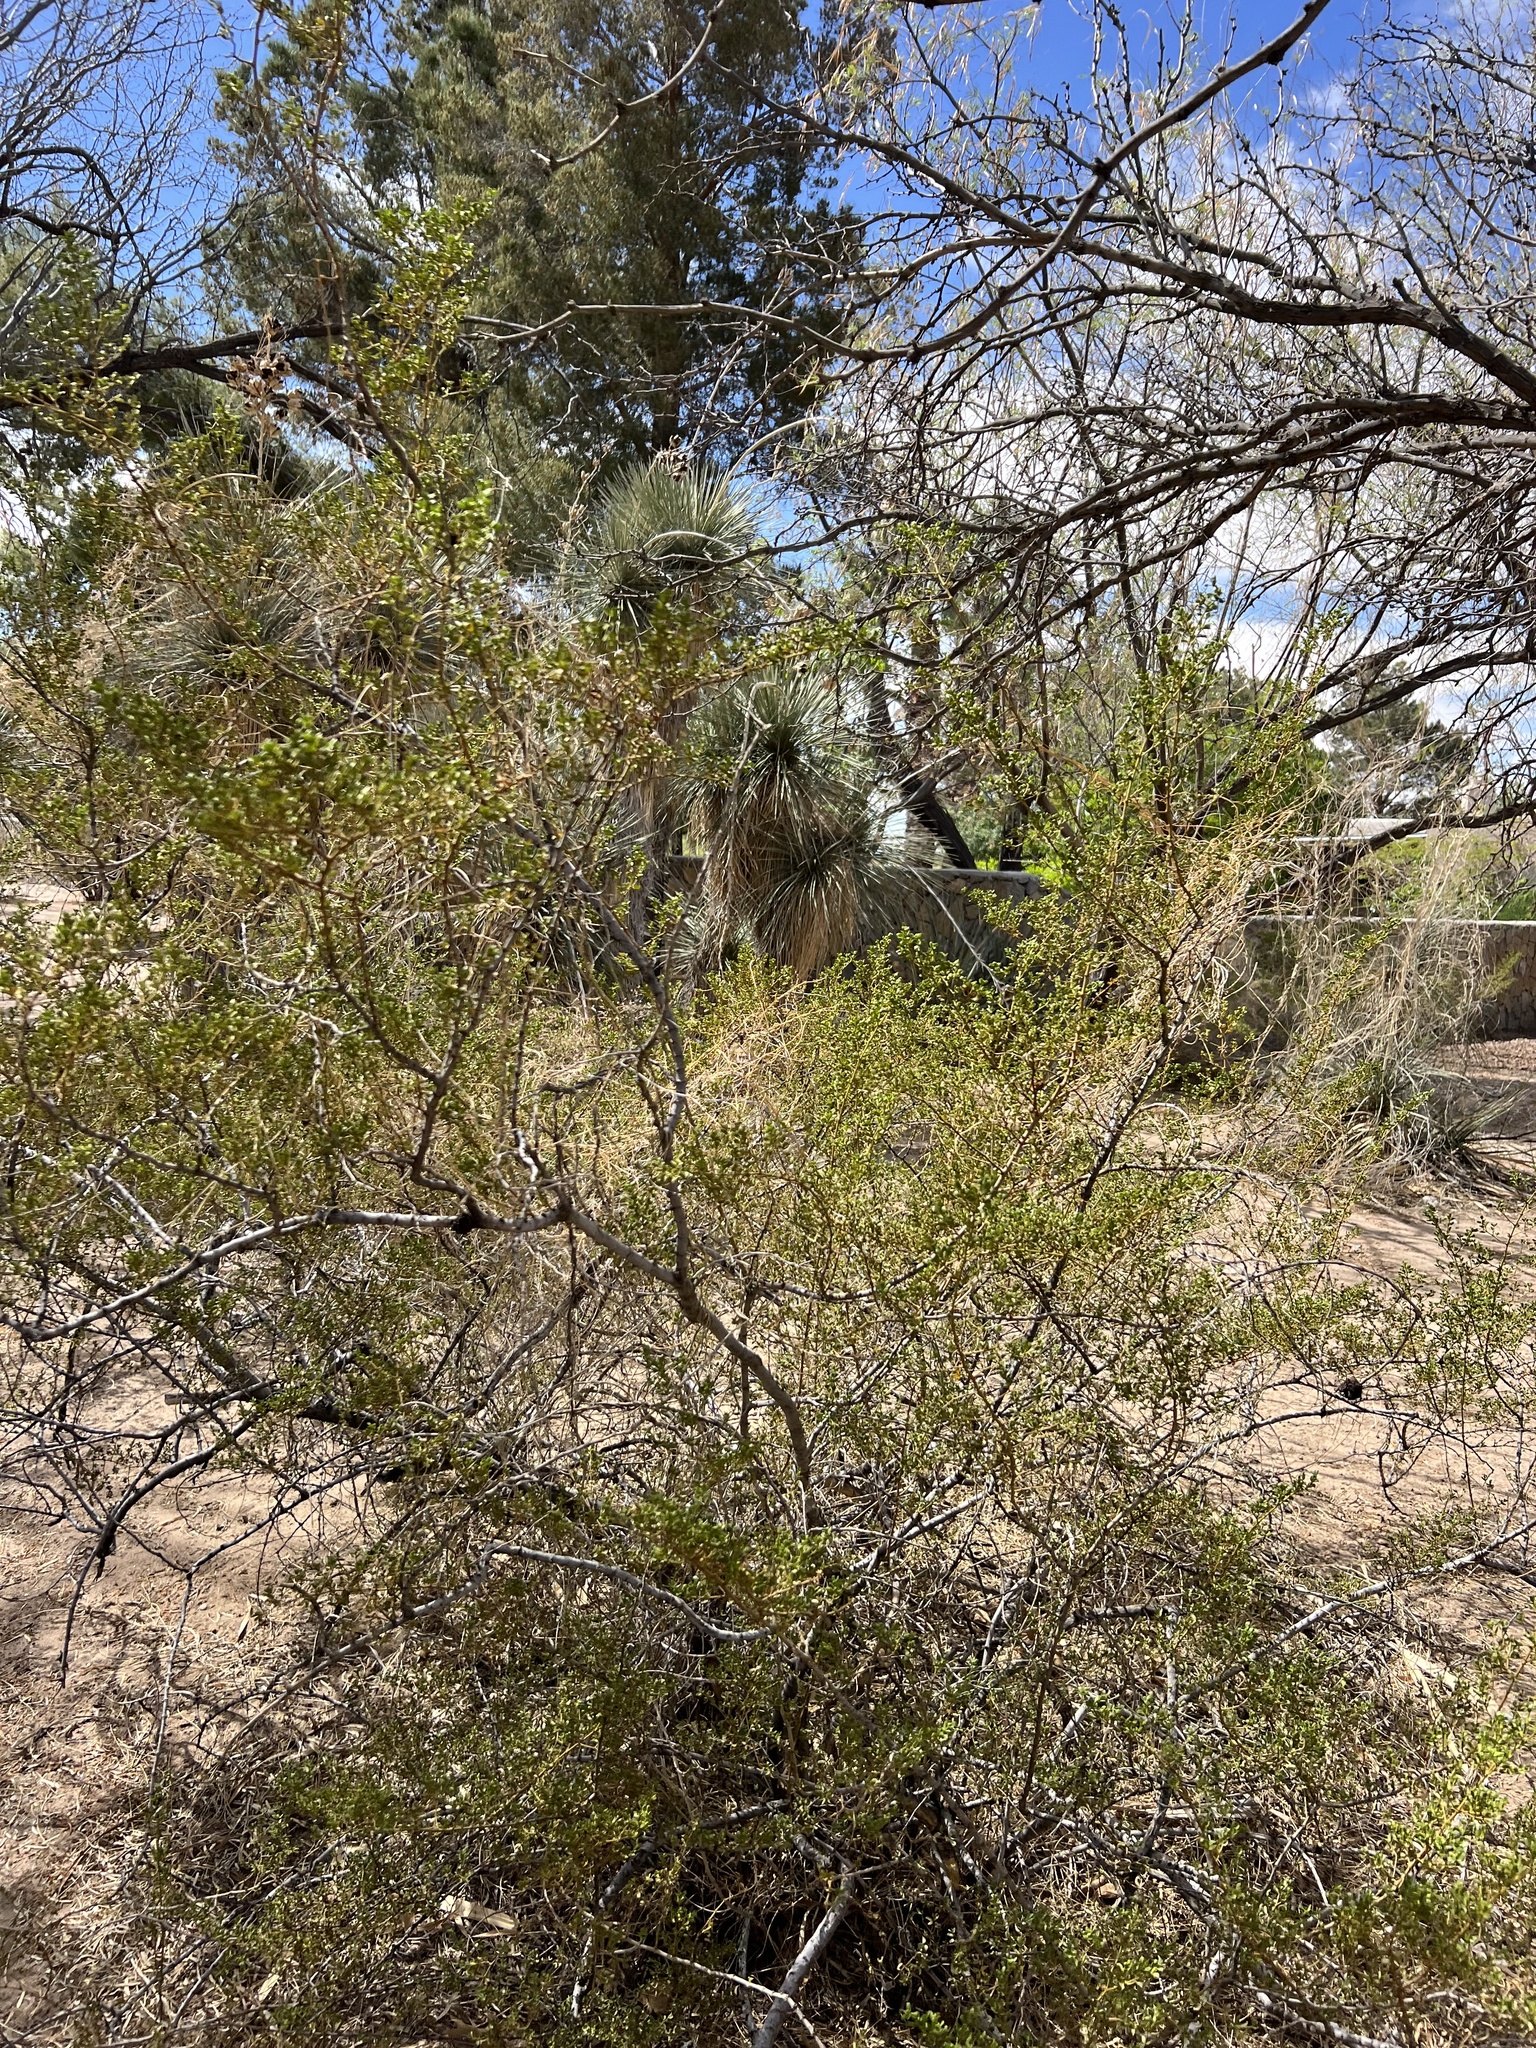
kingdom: Plantae
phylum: Tracheophyta
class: Magnoliopsida
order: Zygophyllales
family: Zygophyllaceae
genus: Larrea
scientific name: Larrea tridentata
